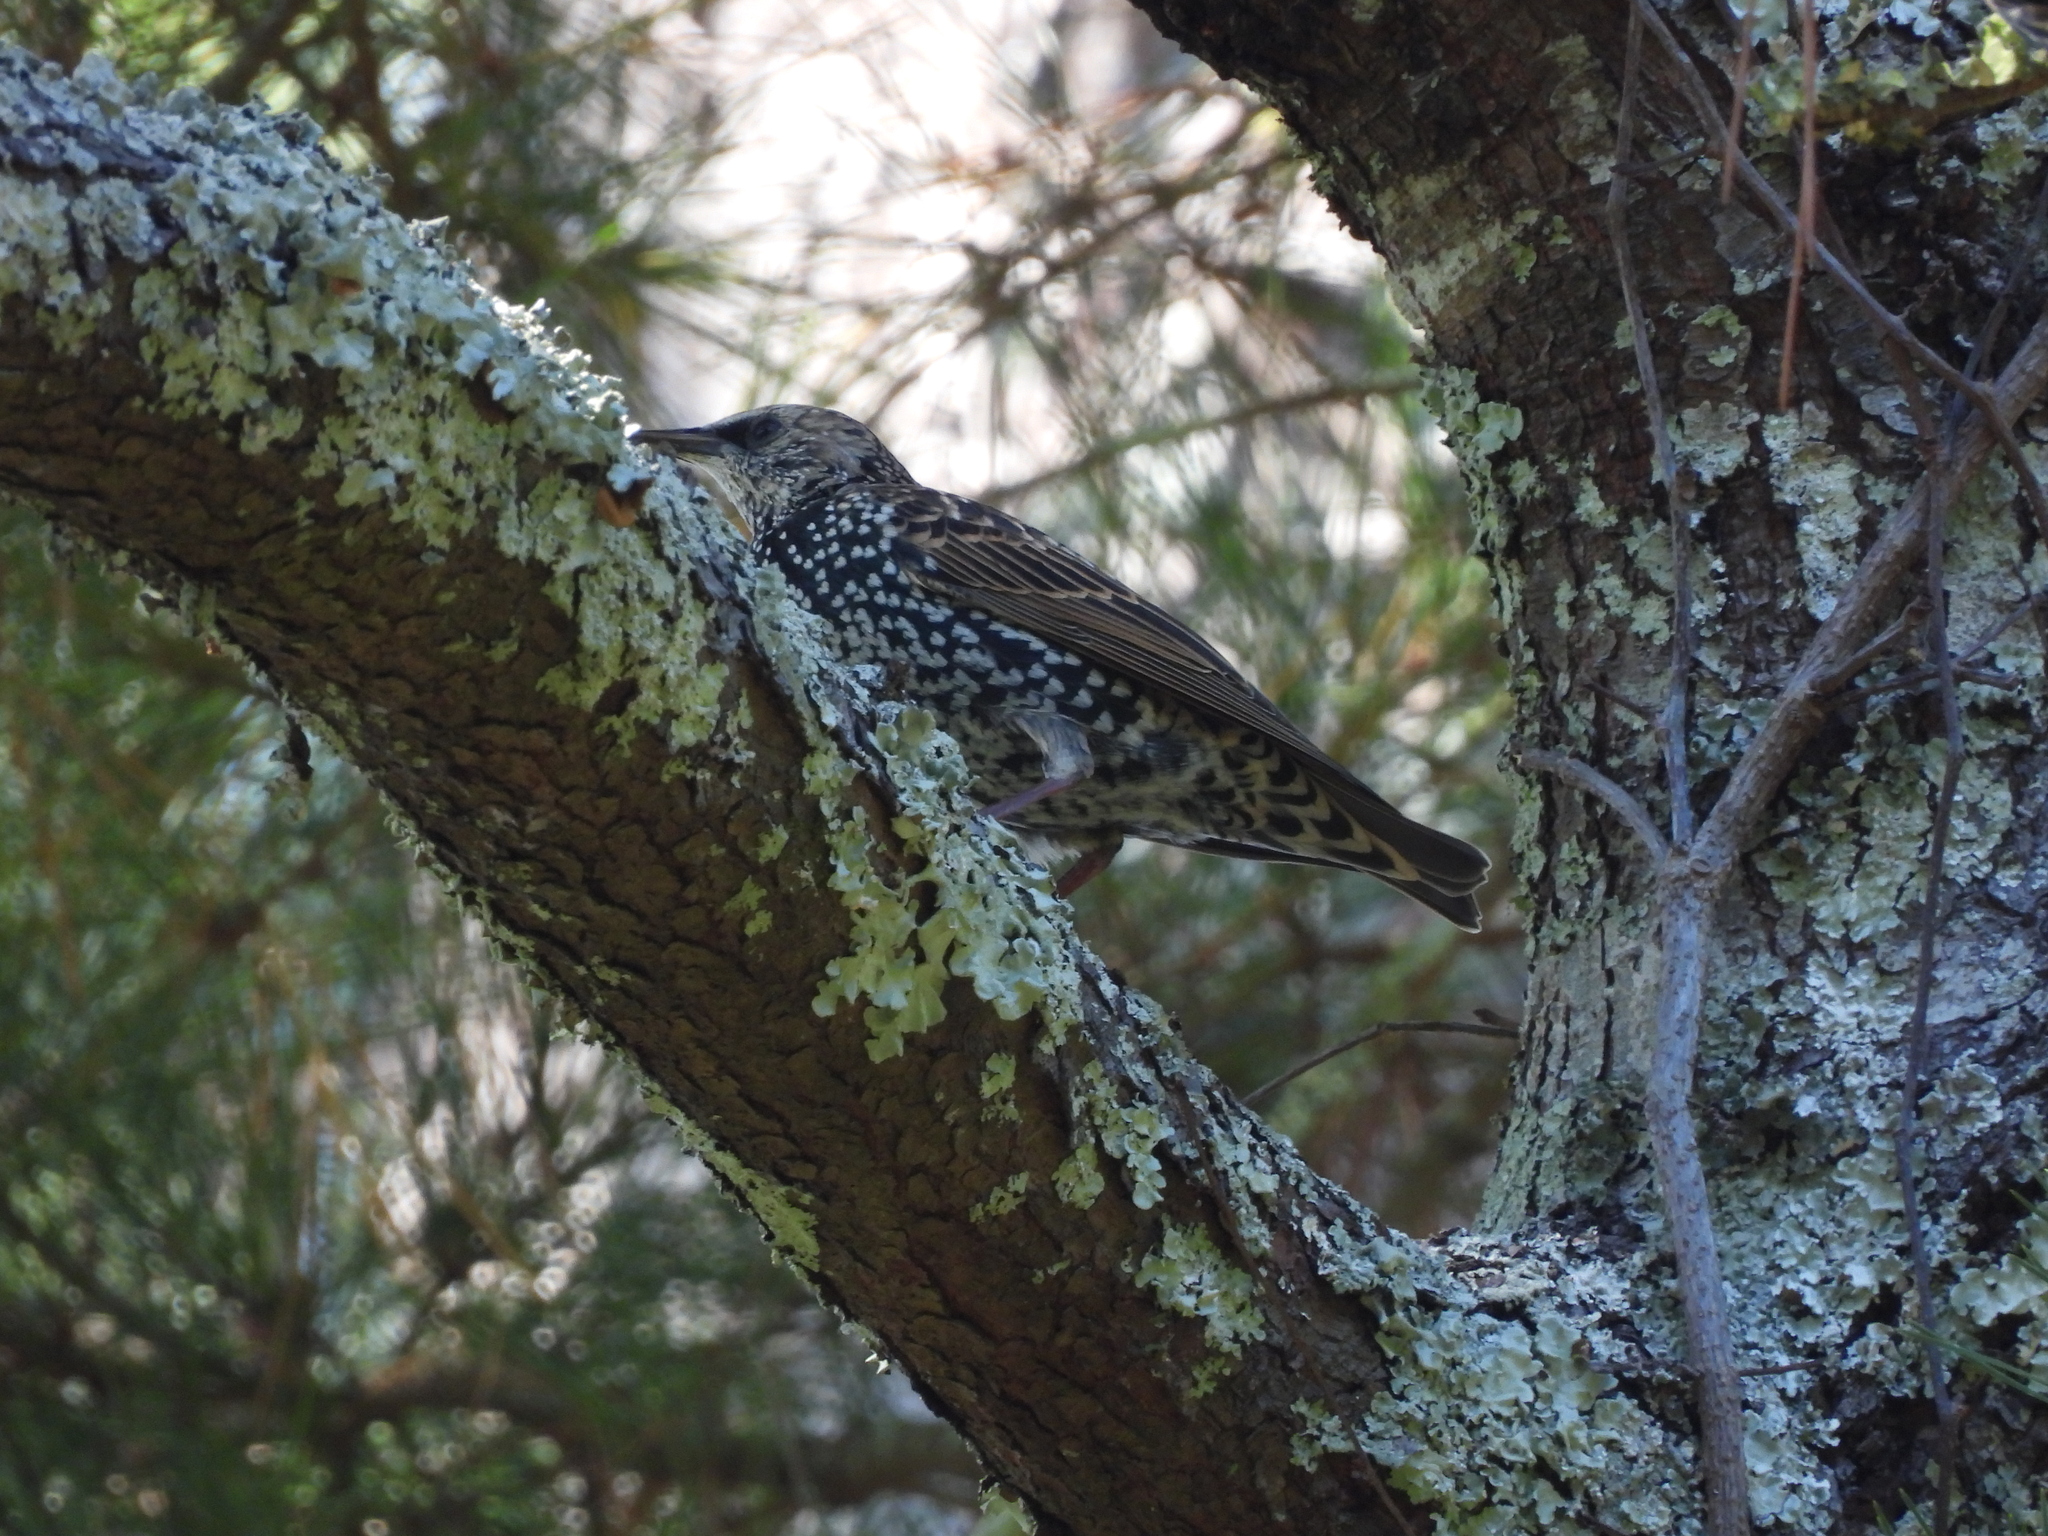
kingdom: Animalia
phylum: Chordata
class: Aves
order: Passeriformes
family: Sturnidae
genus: Sturnus
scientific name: Sturnus vulgaris
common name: Common starling
